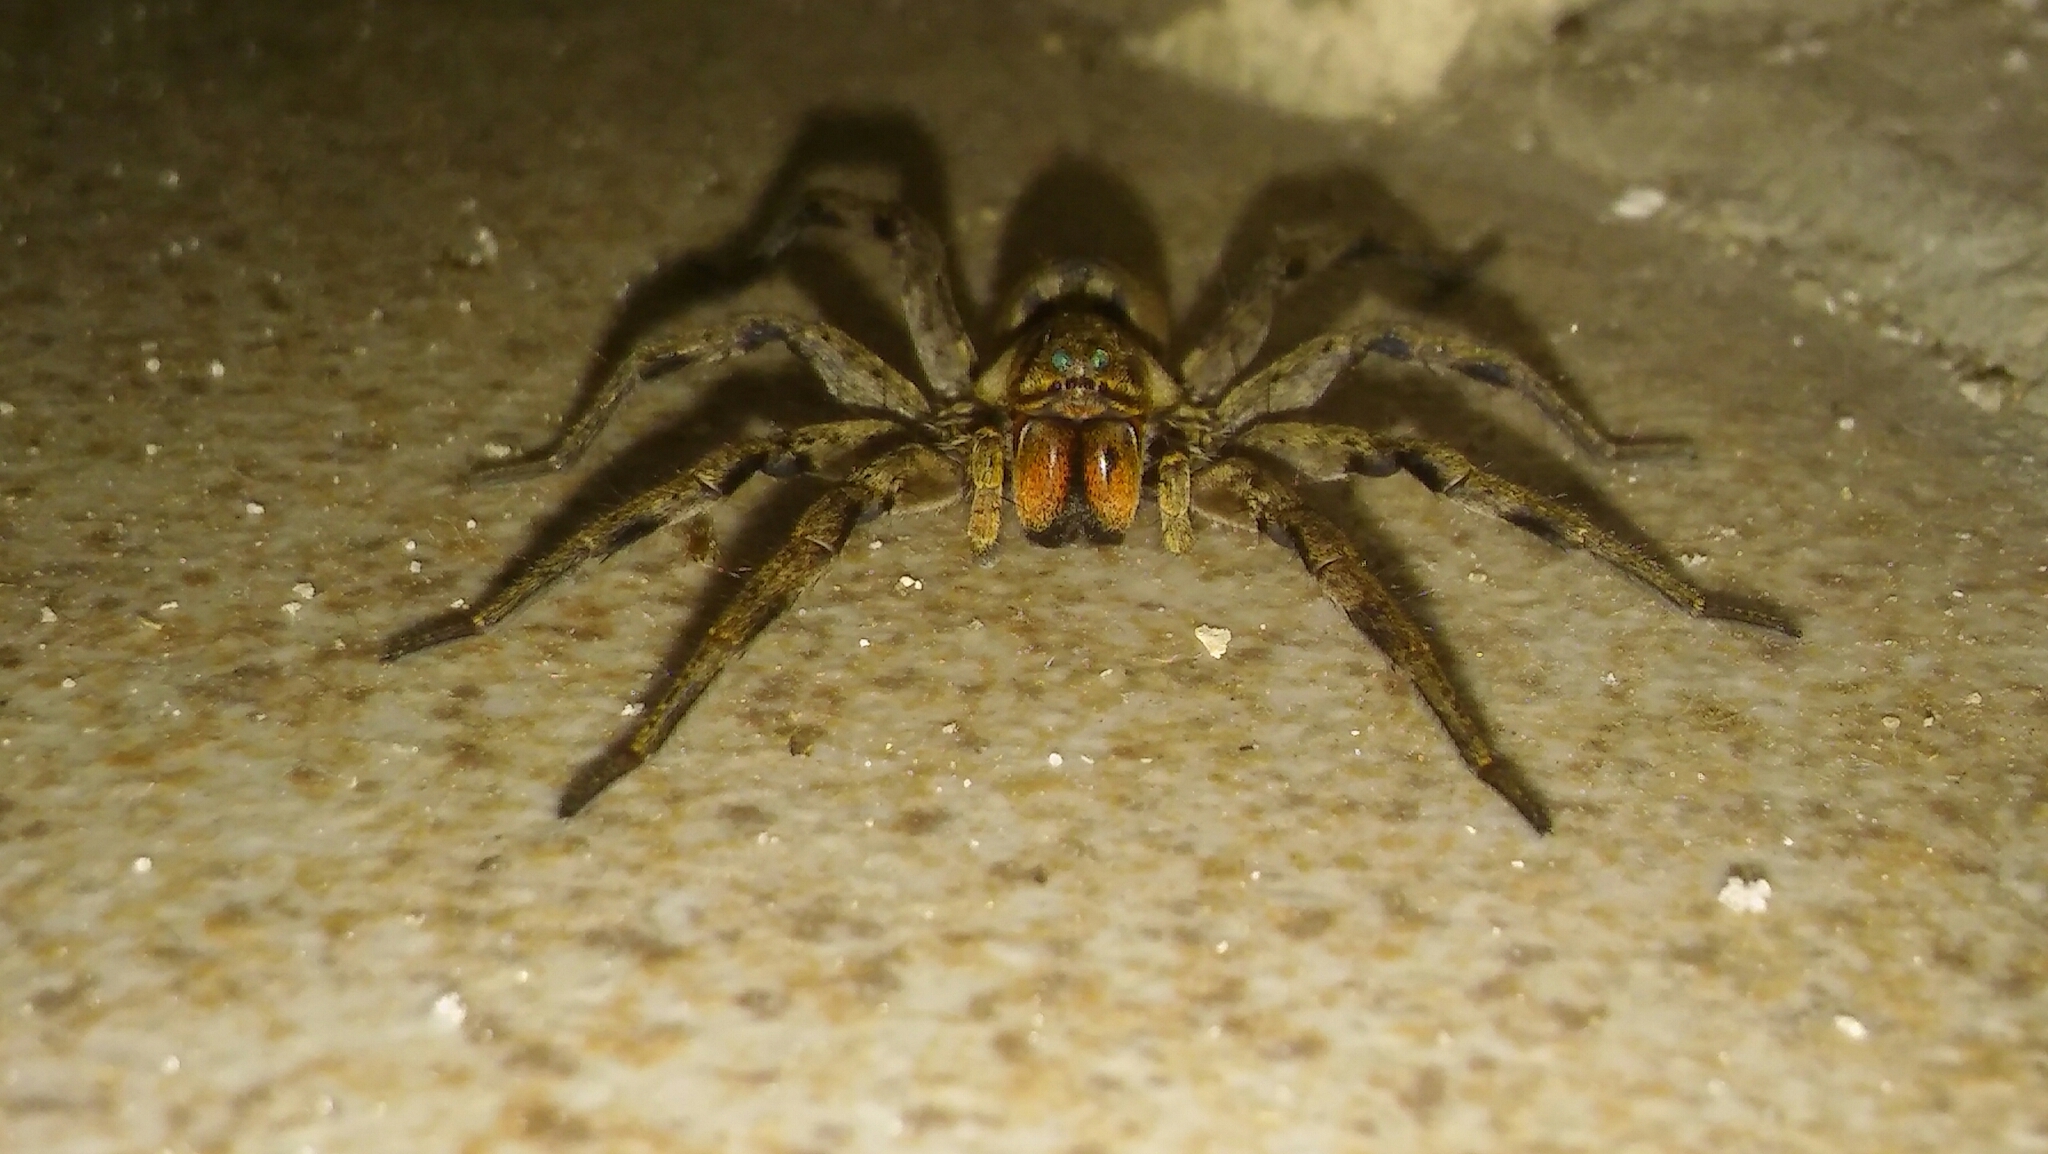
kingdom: Animalia
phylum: Arthropoda
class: Arachnida
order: Araneae
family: Lycosidae
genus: Lycosa
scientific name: Lycosa erythrognatha
